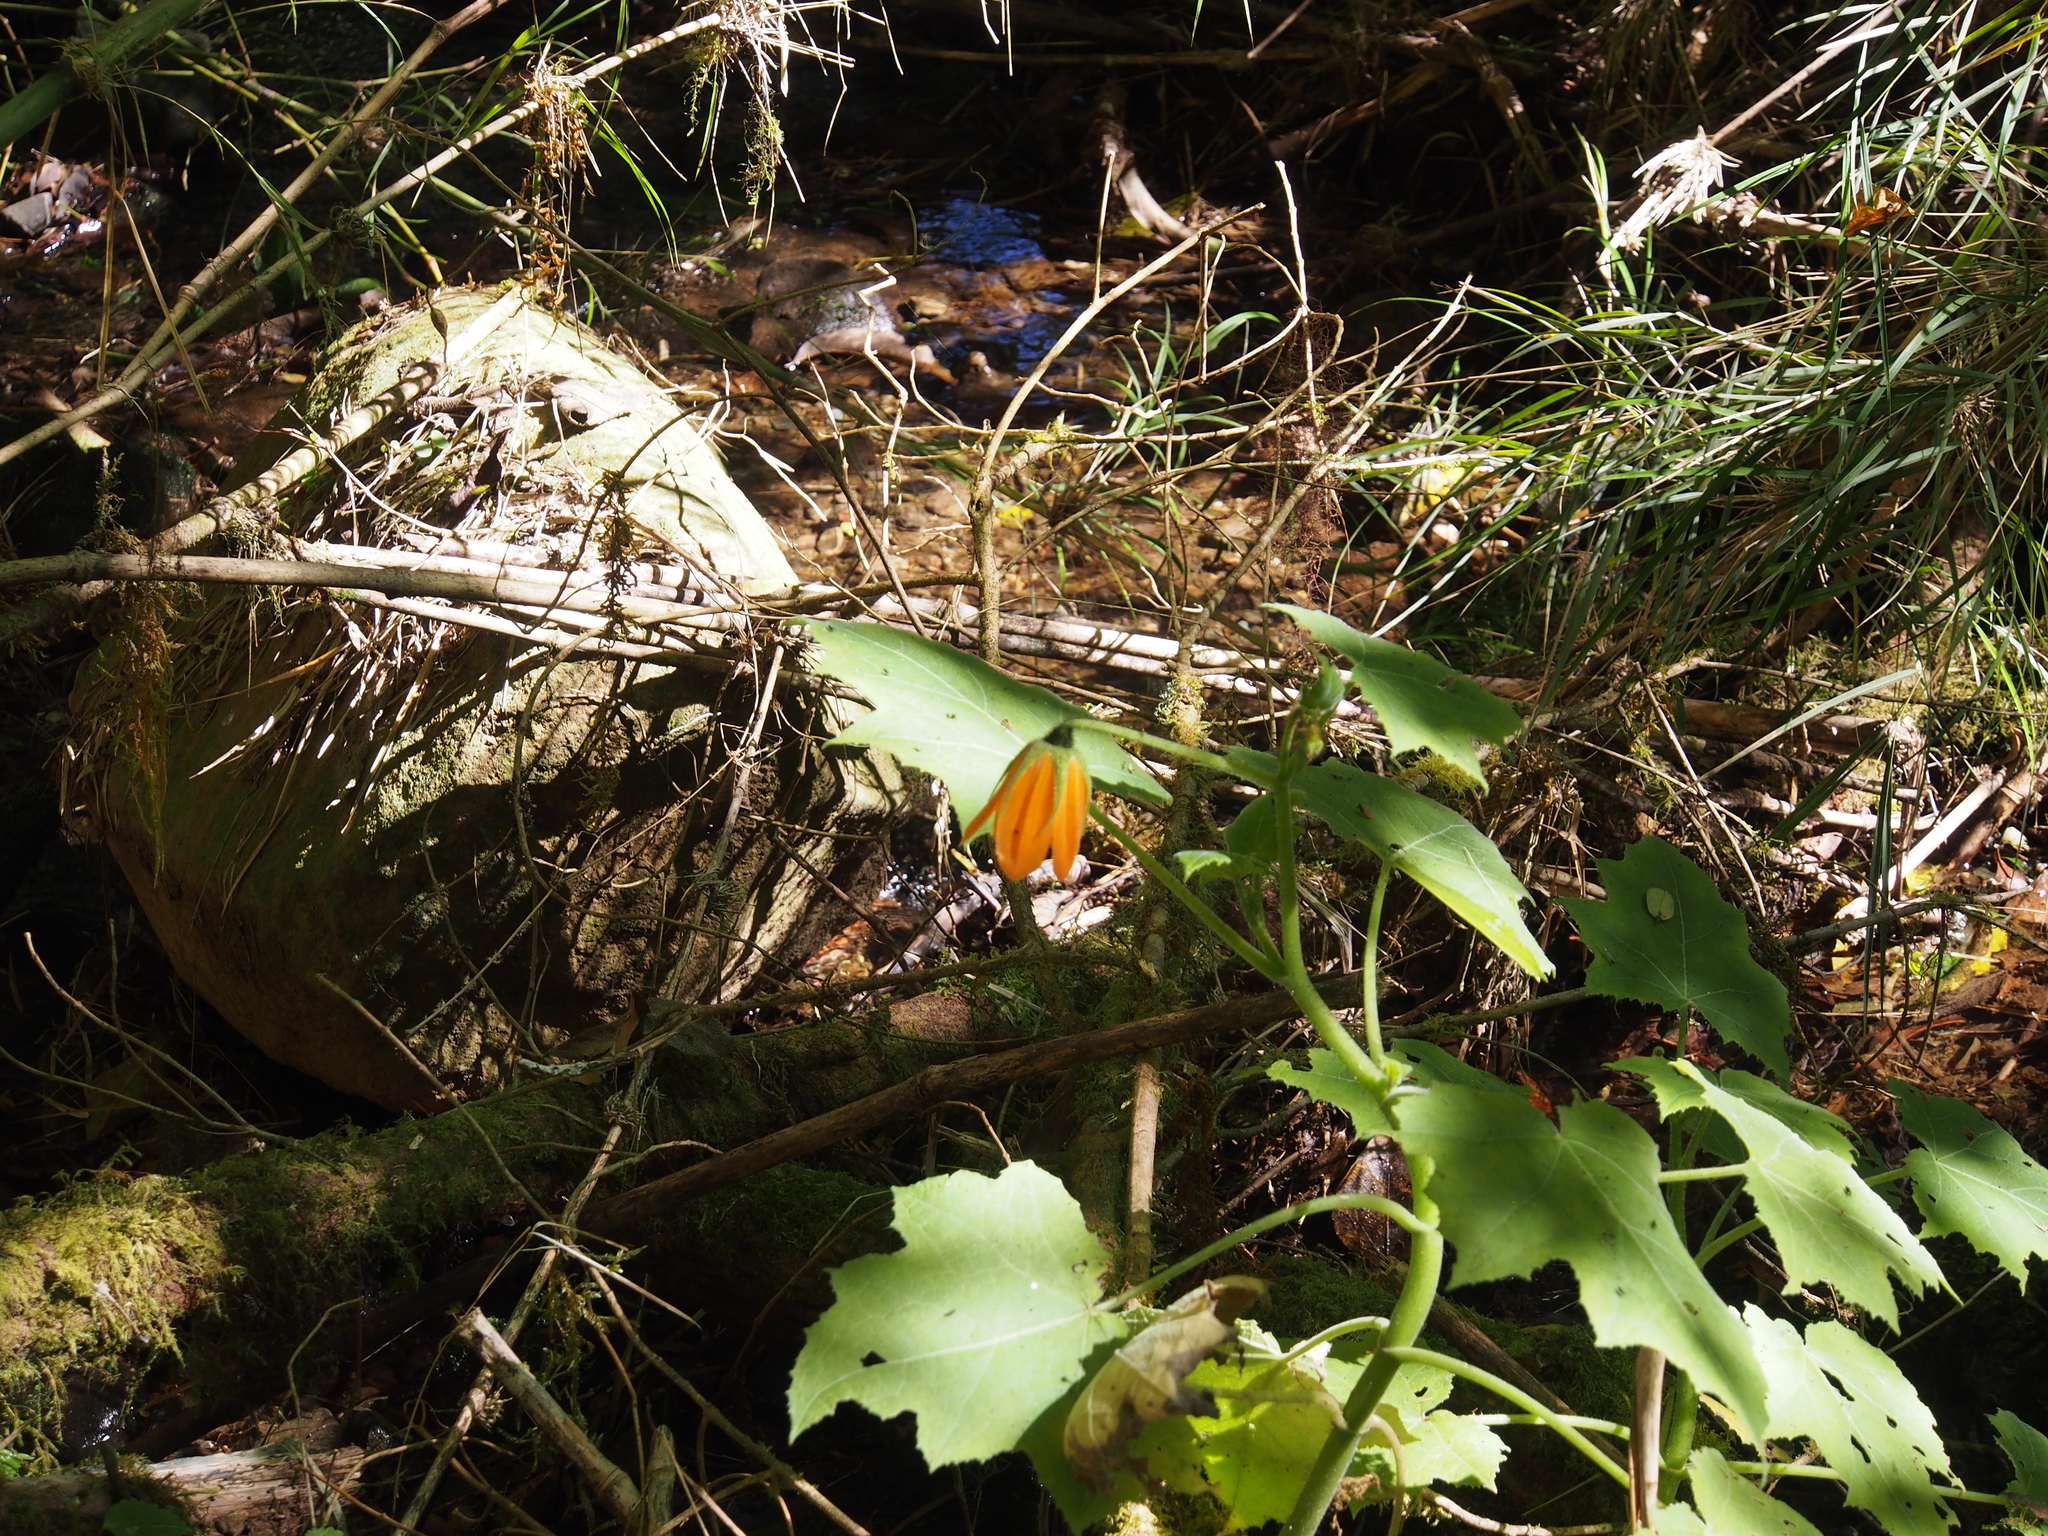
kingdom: Plantae
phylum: Tracheophyta
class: Magnoliopsida
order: Cornales
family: Loasaceae
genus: Nasa
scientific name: Nasa speciosa
